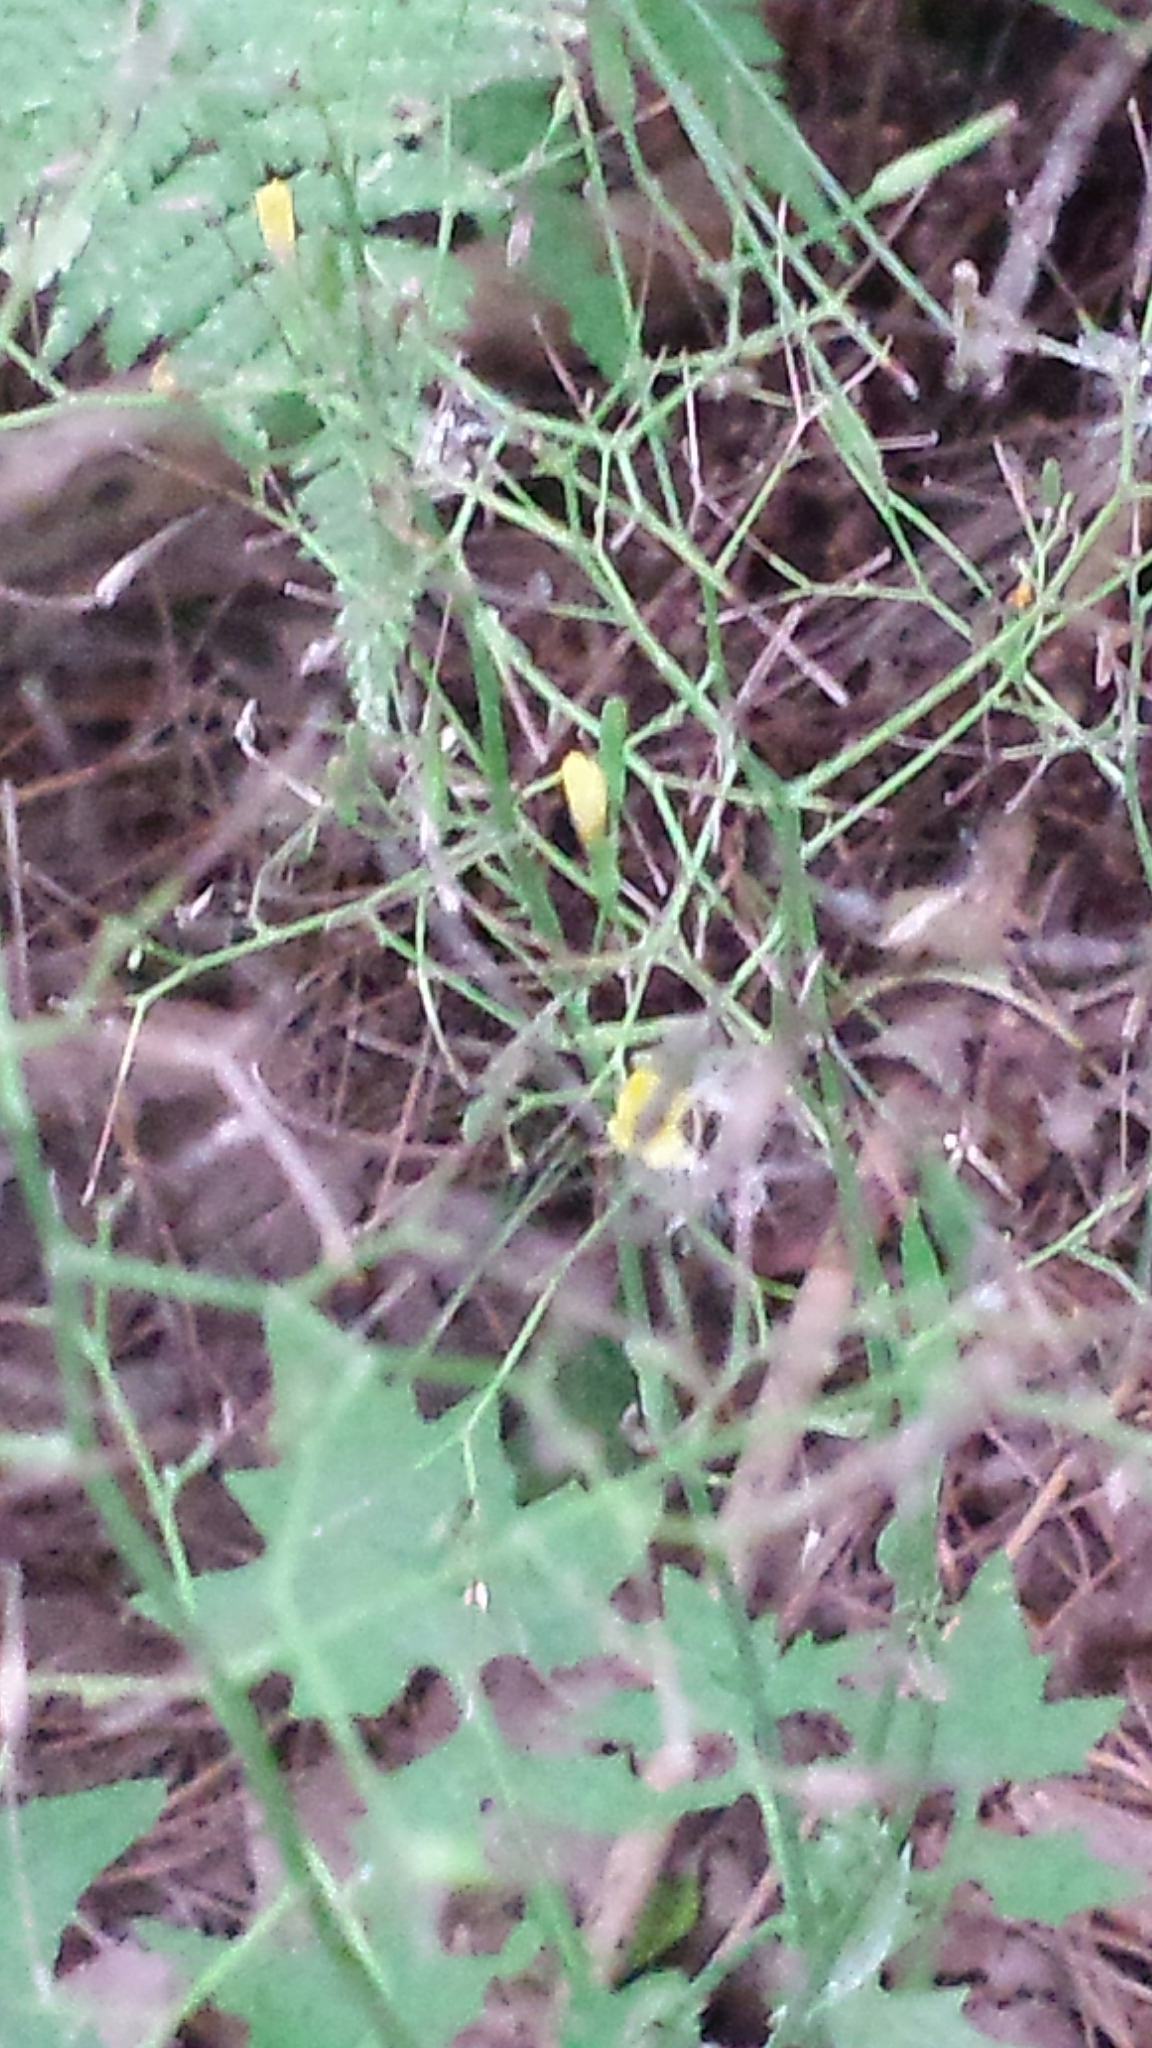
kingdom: Plantae
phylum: Tracheophyta
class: Magnoliopsida
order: Asterales
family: Asteraceae
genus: Mycelis
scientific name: Mycelis muralis
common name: Wall lettuce
